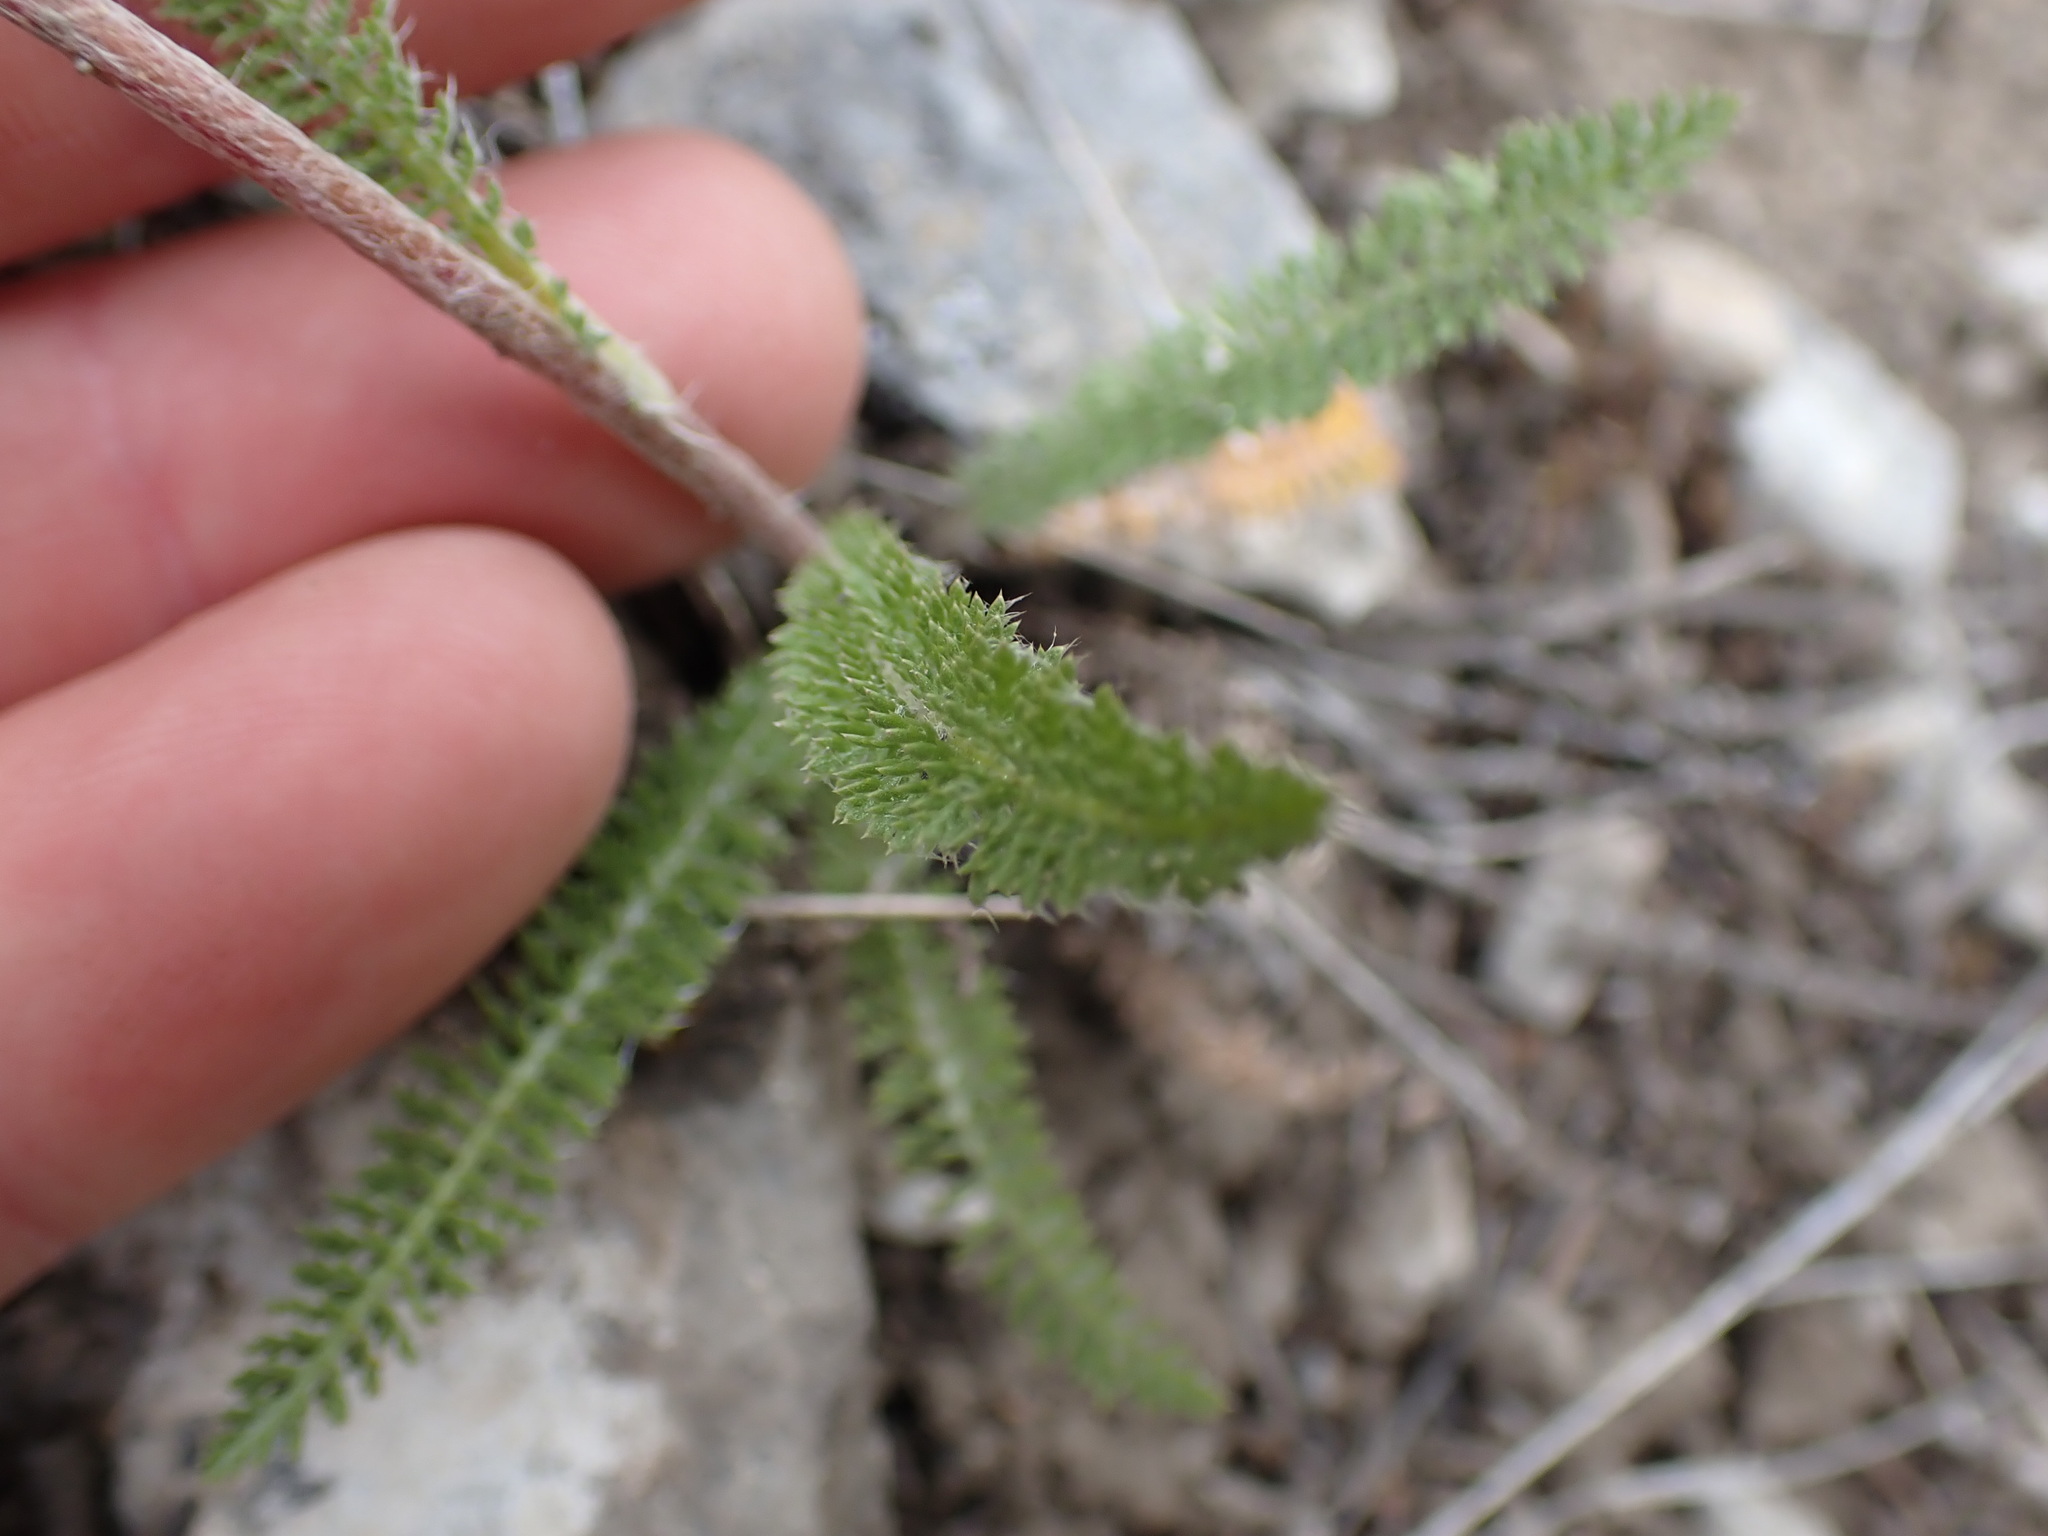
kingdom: Plantae
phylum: Tracheophyta
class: Magnoliopsida
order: Asterales
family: Asteraceae
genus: Achillea
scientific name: Achillea millefolium
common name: Yarrow
